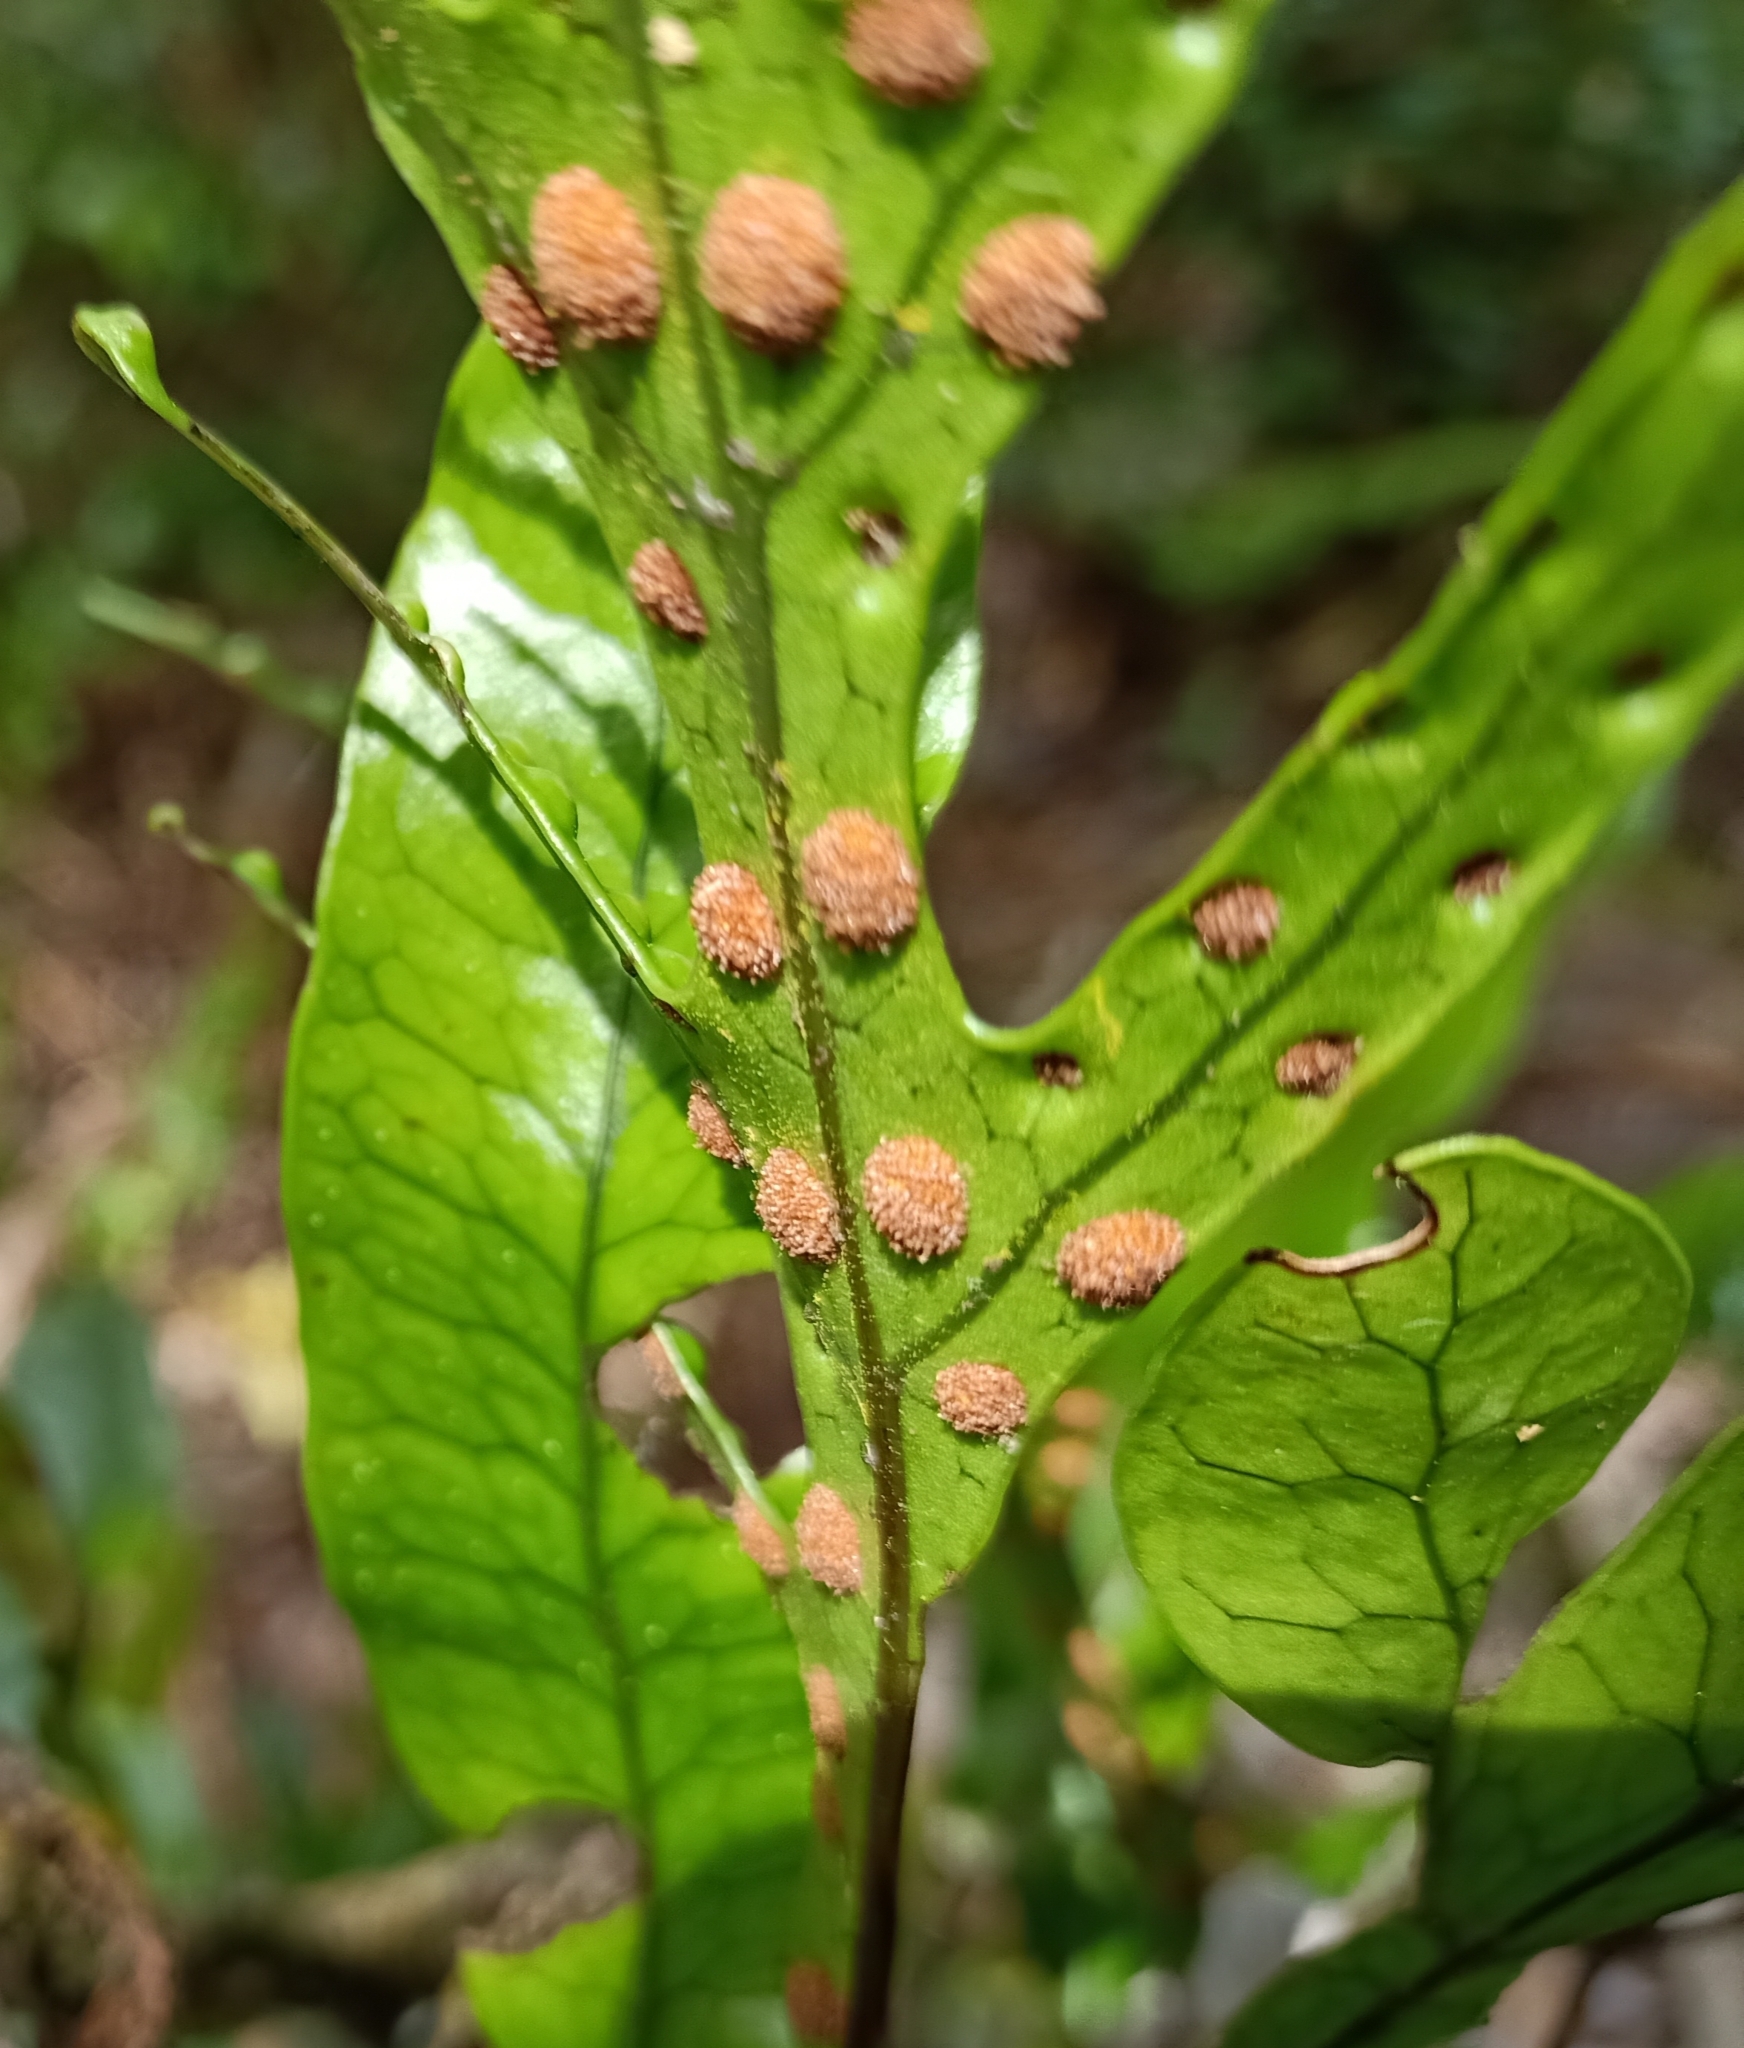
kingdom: Plantae
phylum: Tracheophyta
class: Polypodiopsida
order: Polypodiales
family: Polypodiaceae
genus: Lecanopteris
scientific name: Lecanopteris pustulata
